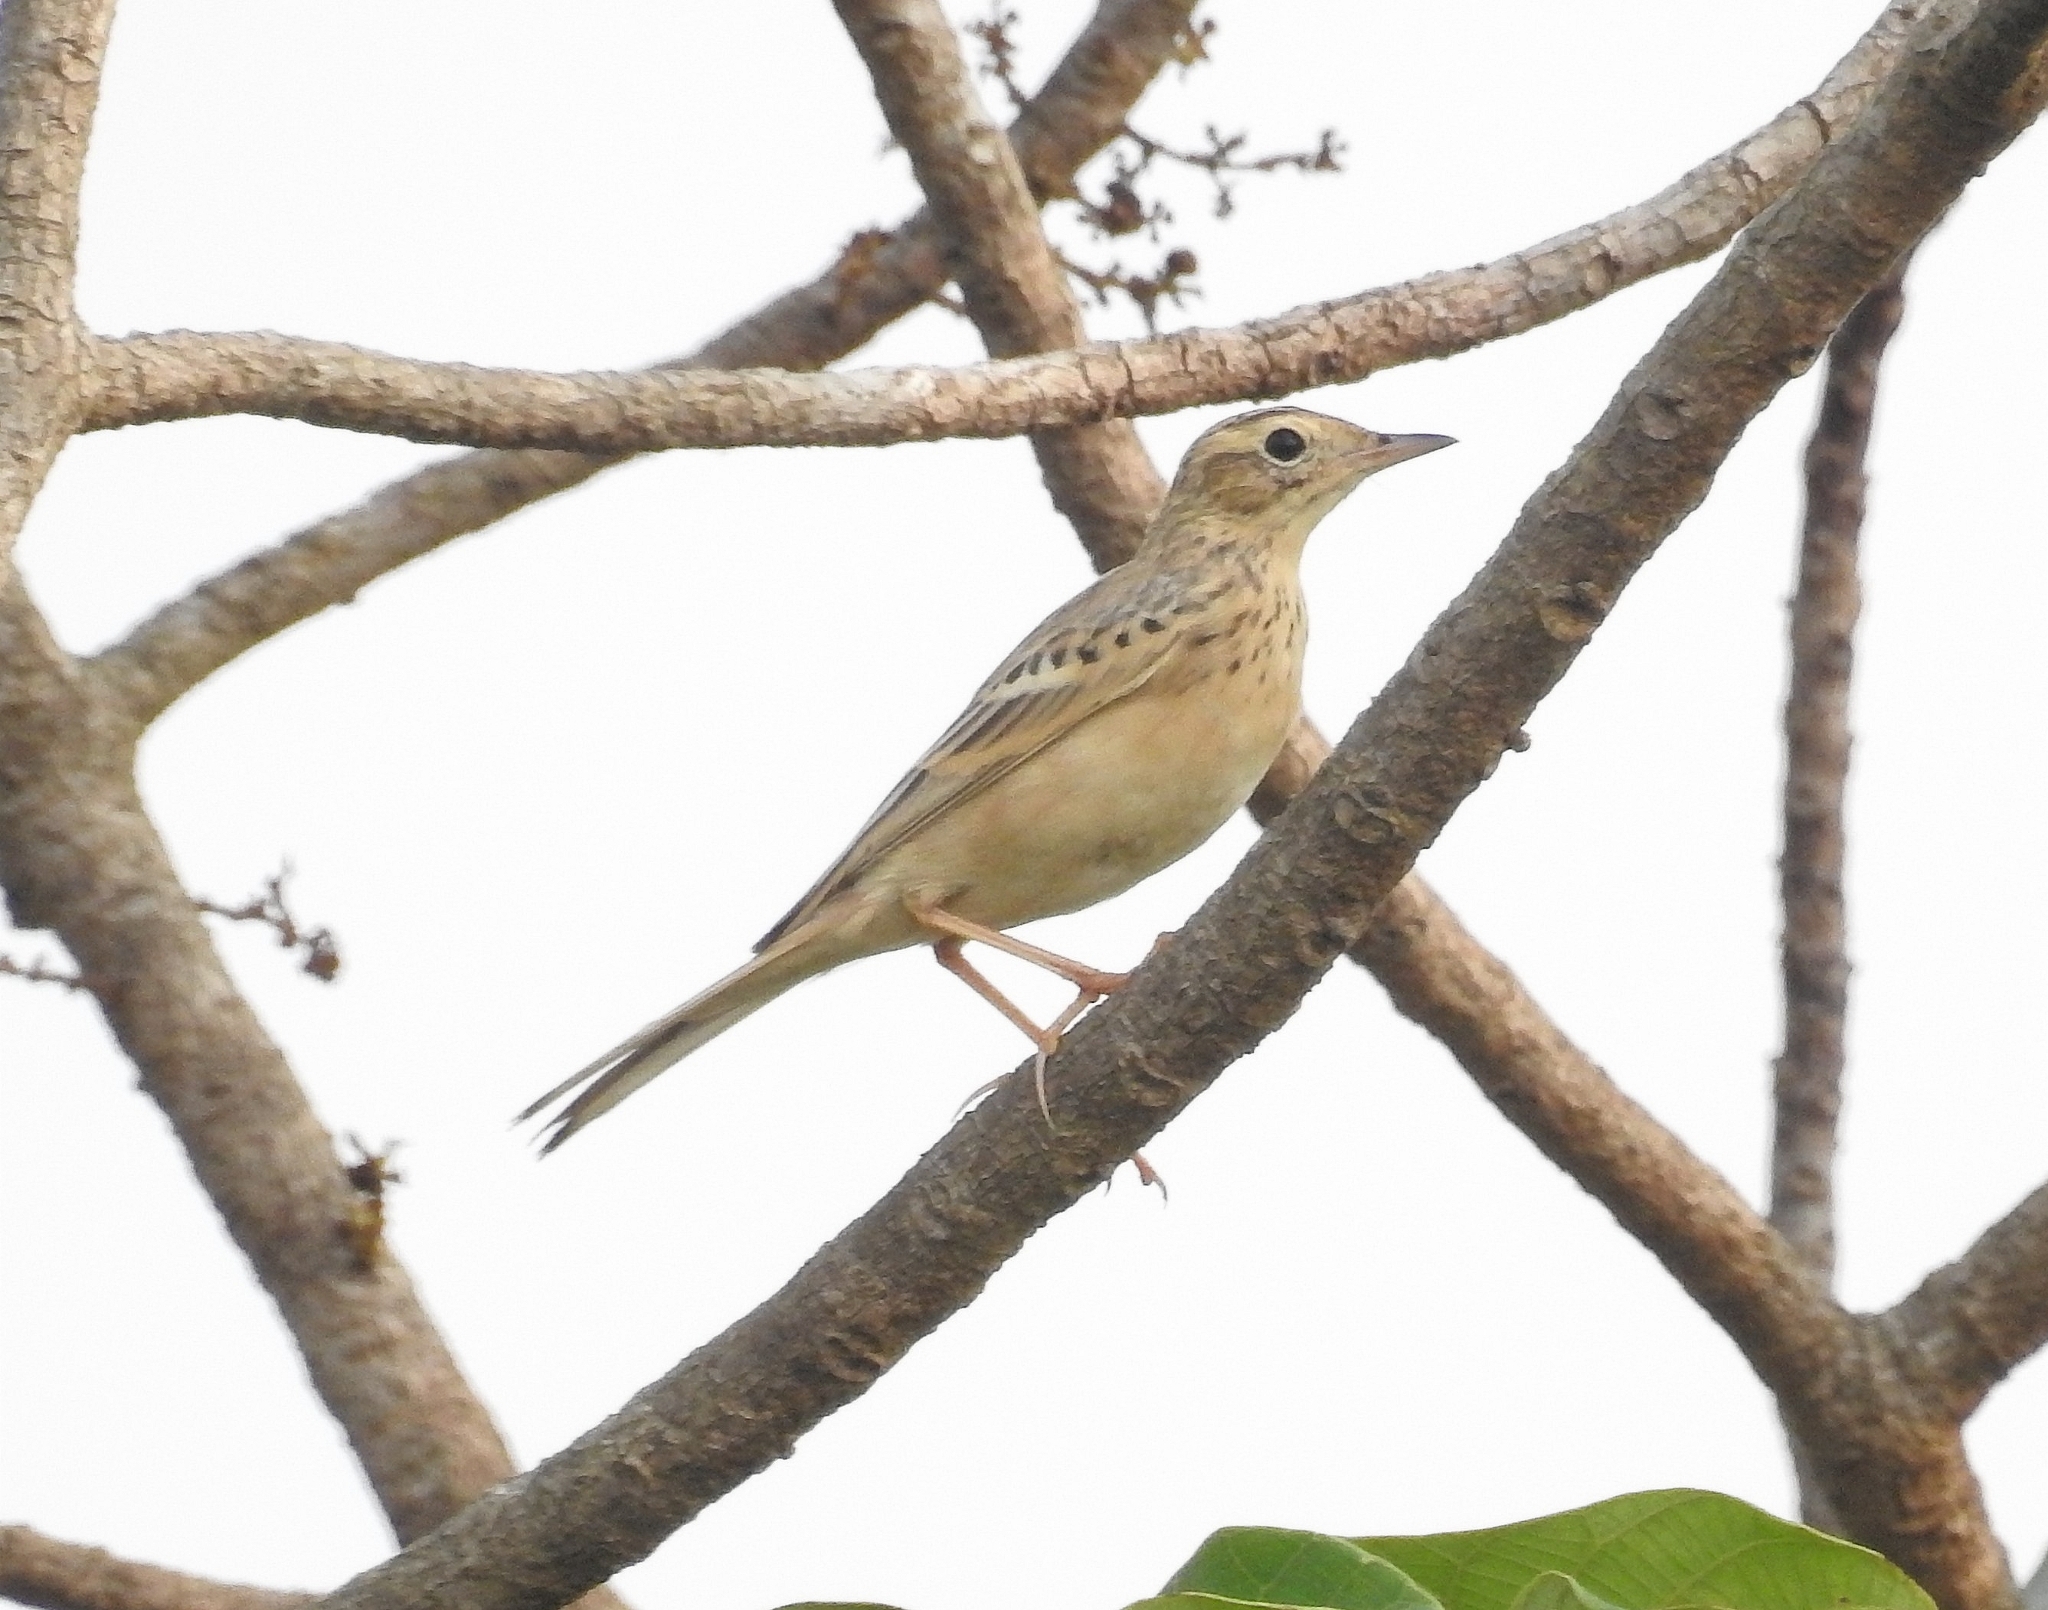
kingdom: Animalia
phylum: Chordata
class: Aves
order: Passeriformes
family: Motacillidae
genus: Anthus
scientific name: Anthus godlewskii
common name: Blyth's pipit
